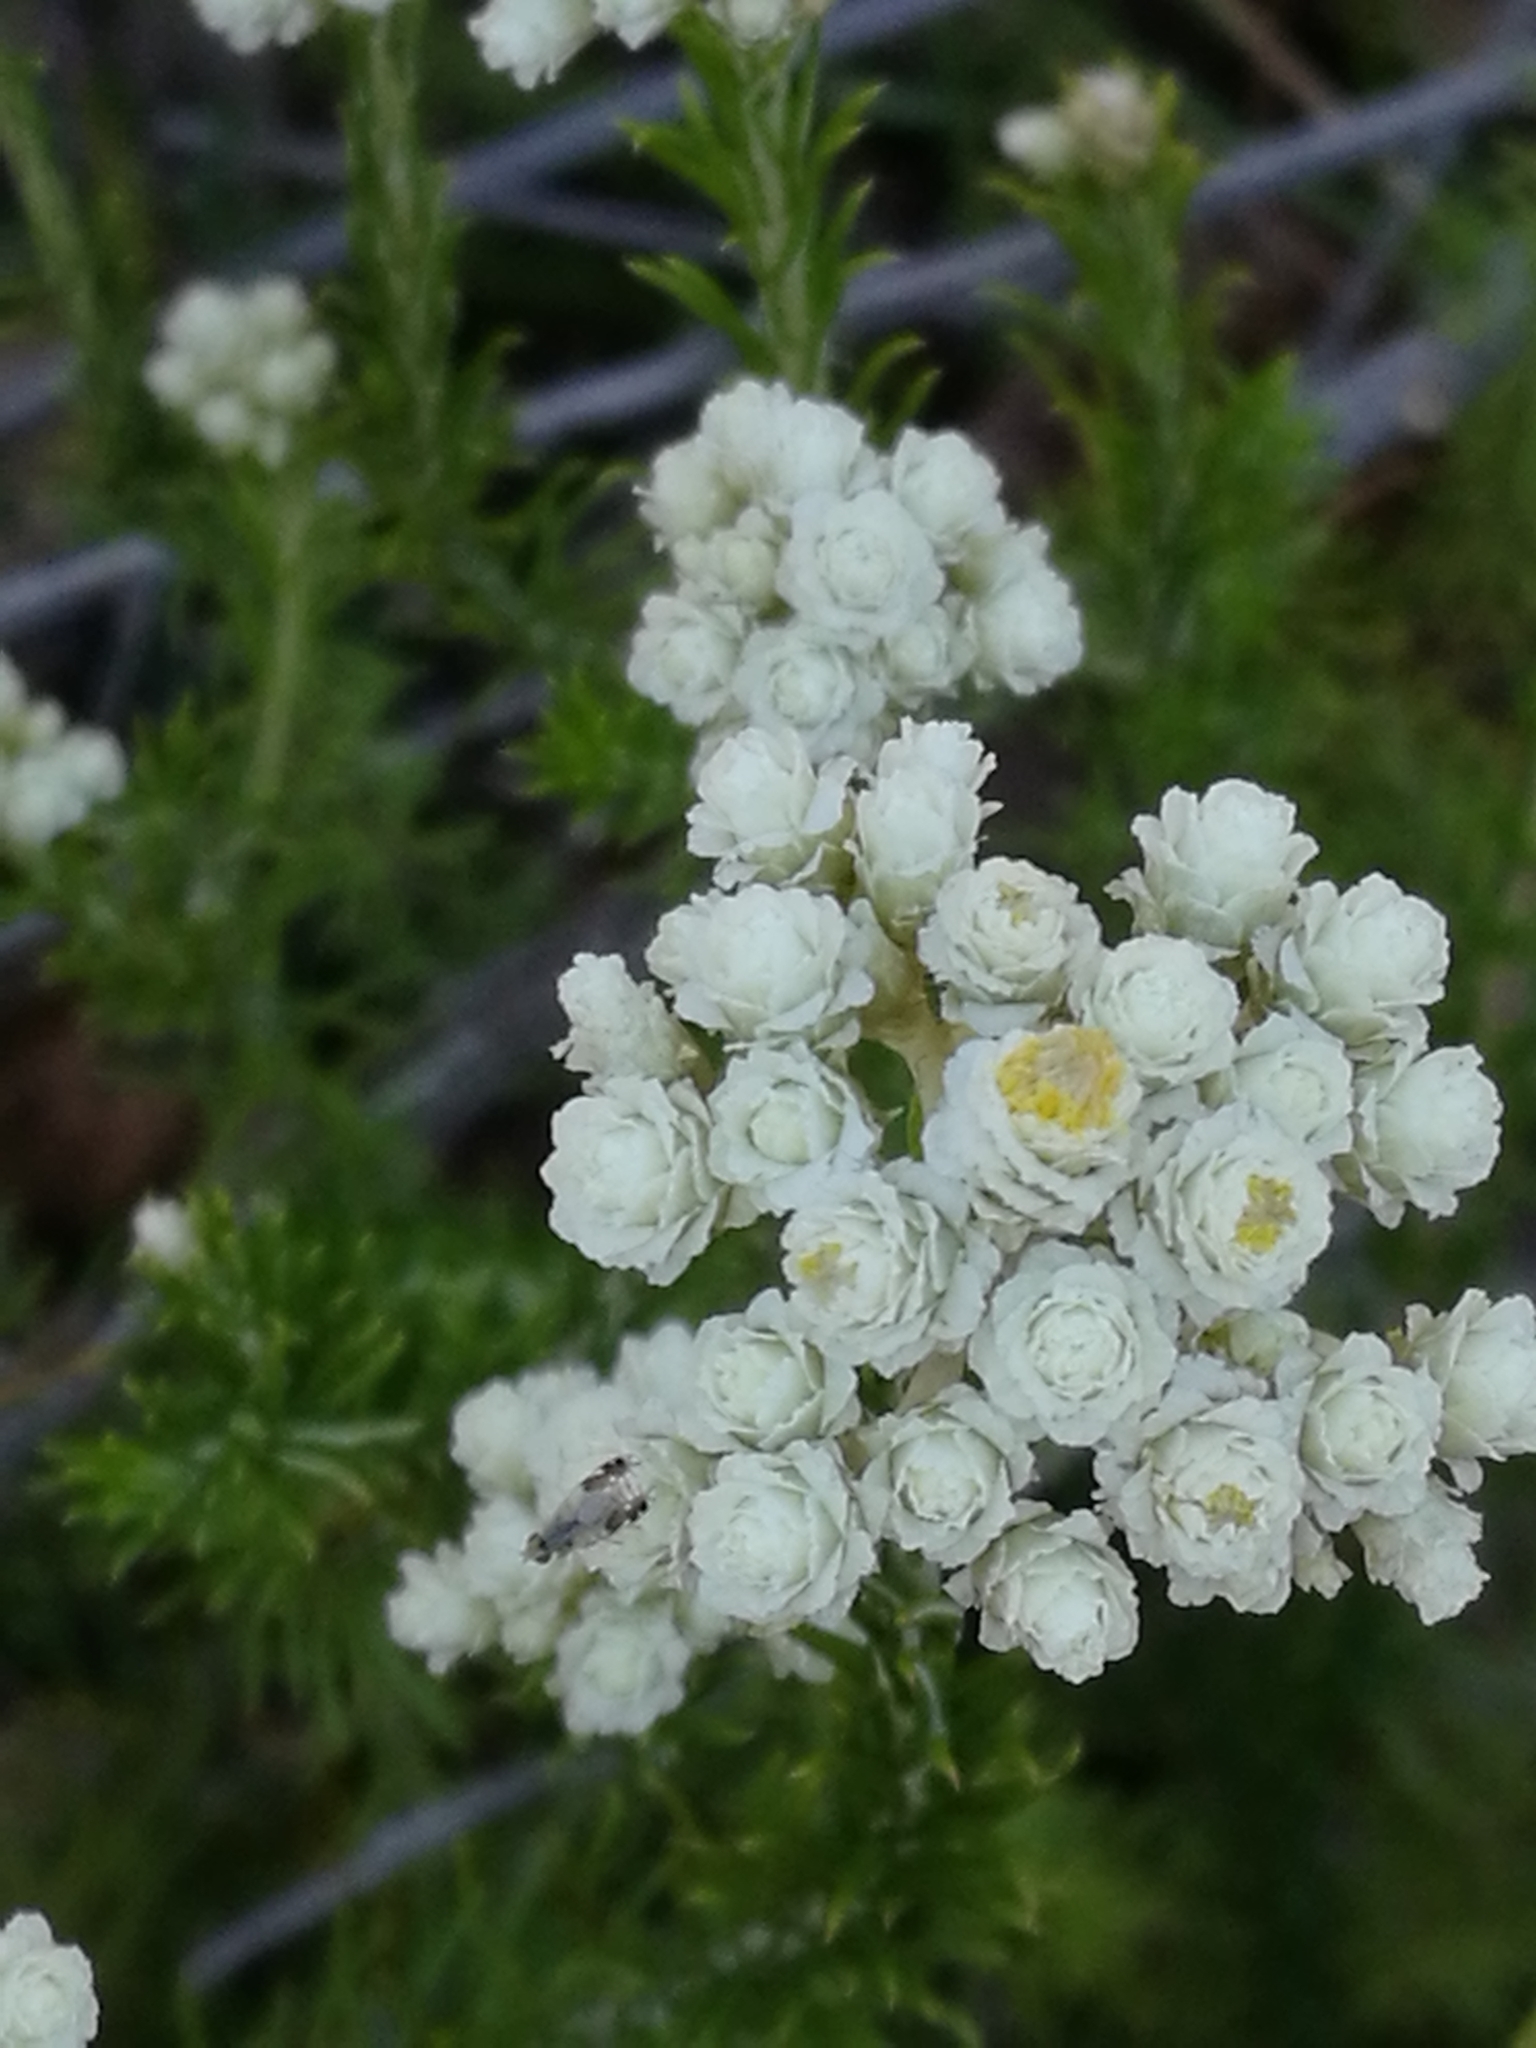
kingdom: Plantae
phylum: Tracheophyta
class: Magnoliopsida
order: Asterales
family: Asteraceae
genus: Helichrysum
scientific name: Helichrysum teretifolium
